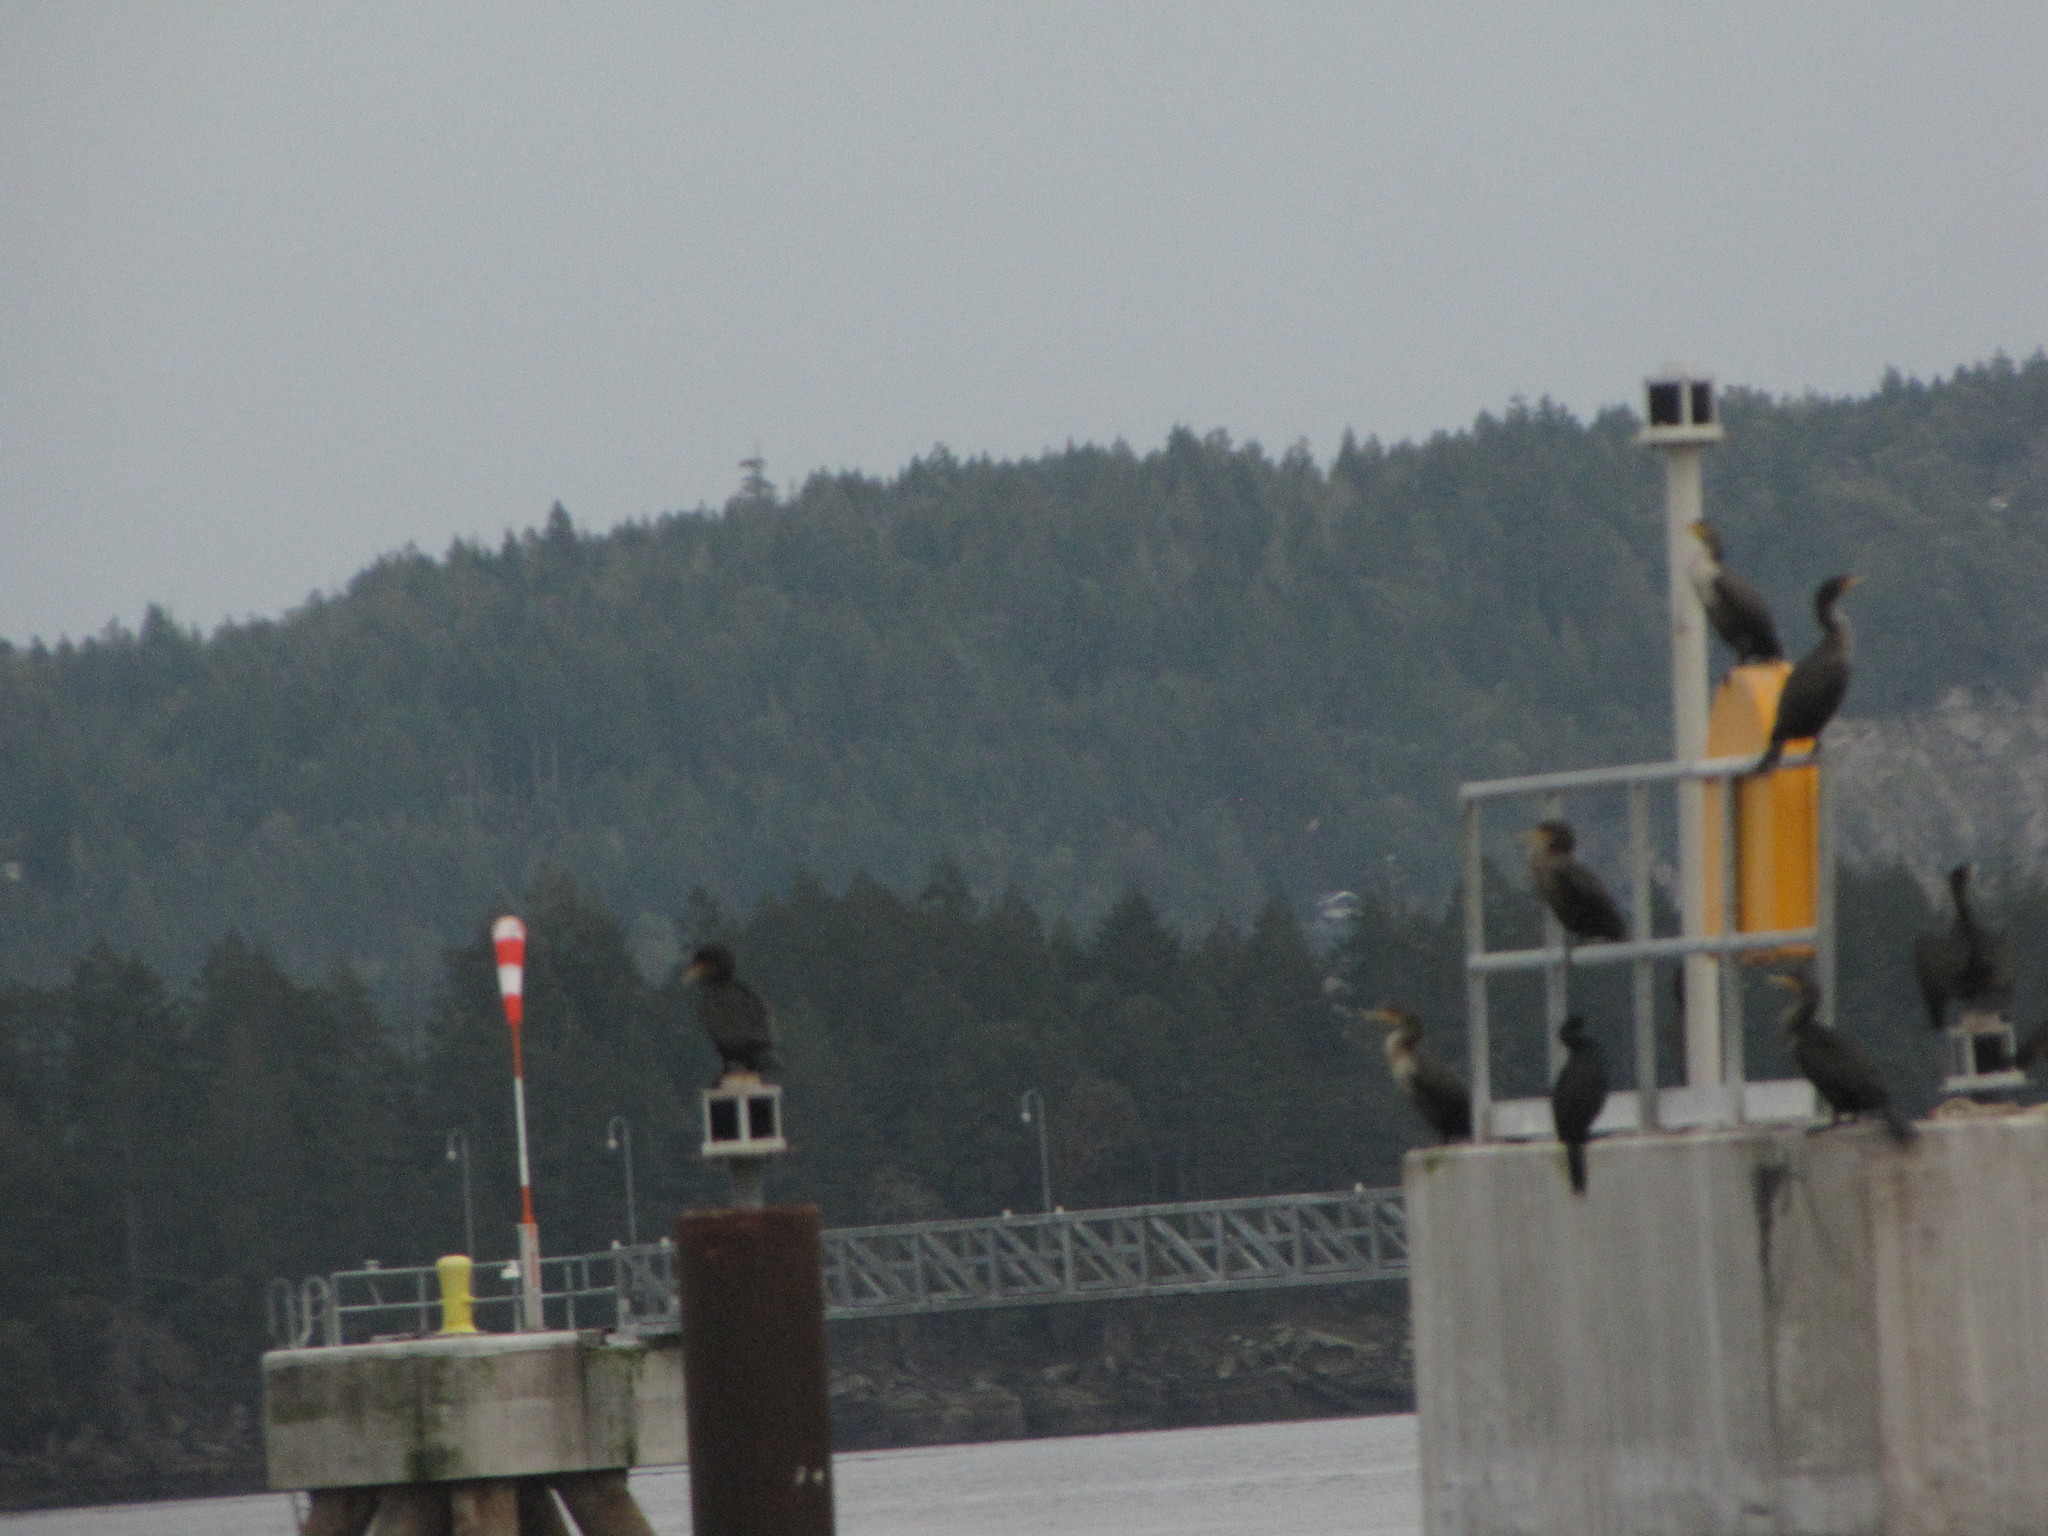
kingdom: Animalia
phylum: Chordata
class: Aves
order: Suliformes
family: Phalacrocoracidae
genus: Phalacrocorax
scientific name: Phalacrocorax auritus
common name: Double-crested cormorant
